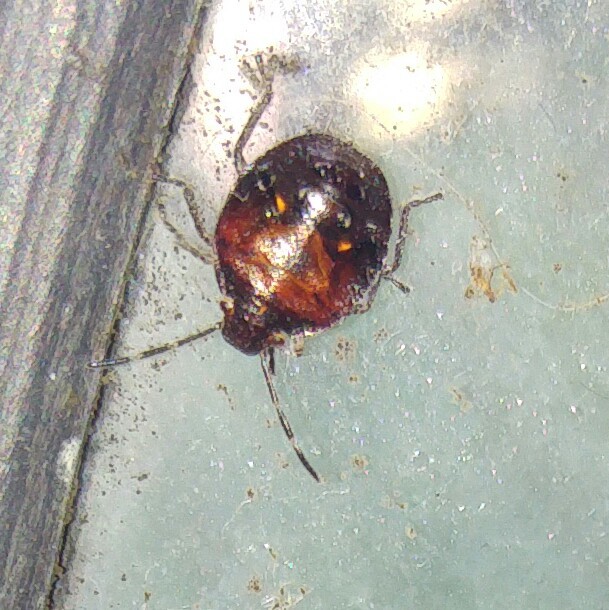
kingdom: Animalia
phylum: Arthropoda
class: Insecta
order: Hemiptera
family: Pentatomidae
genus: Monteithiella
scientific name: Monteithiella
